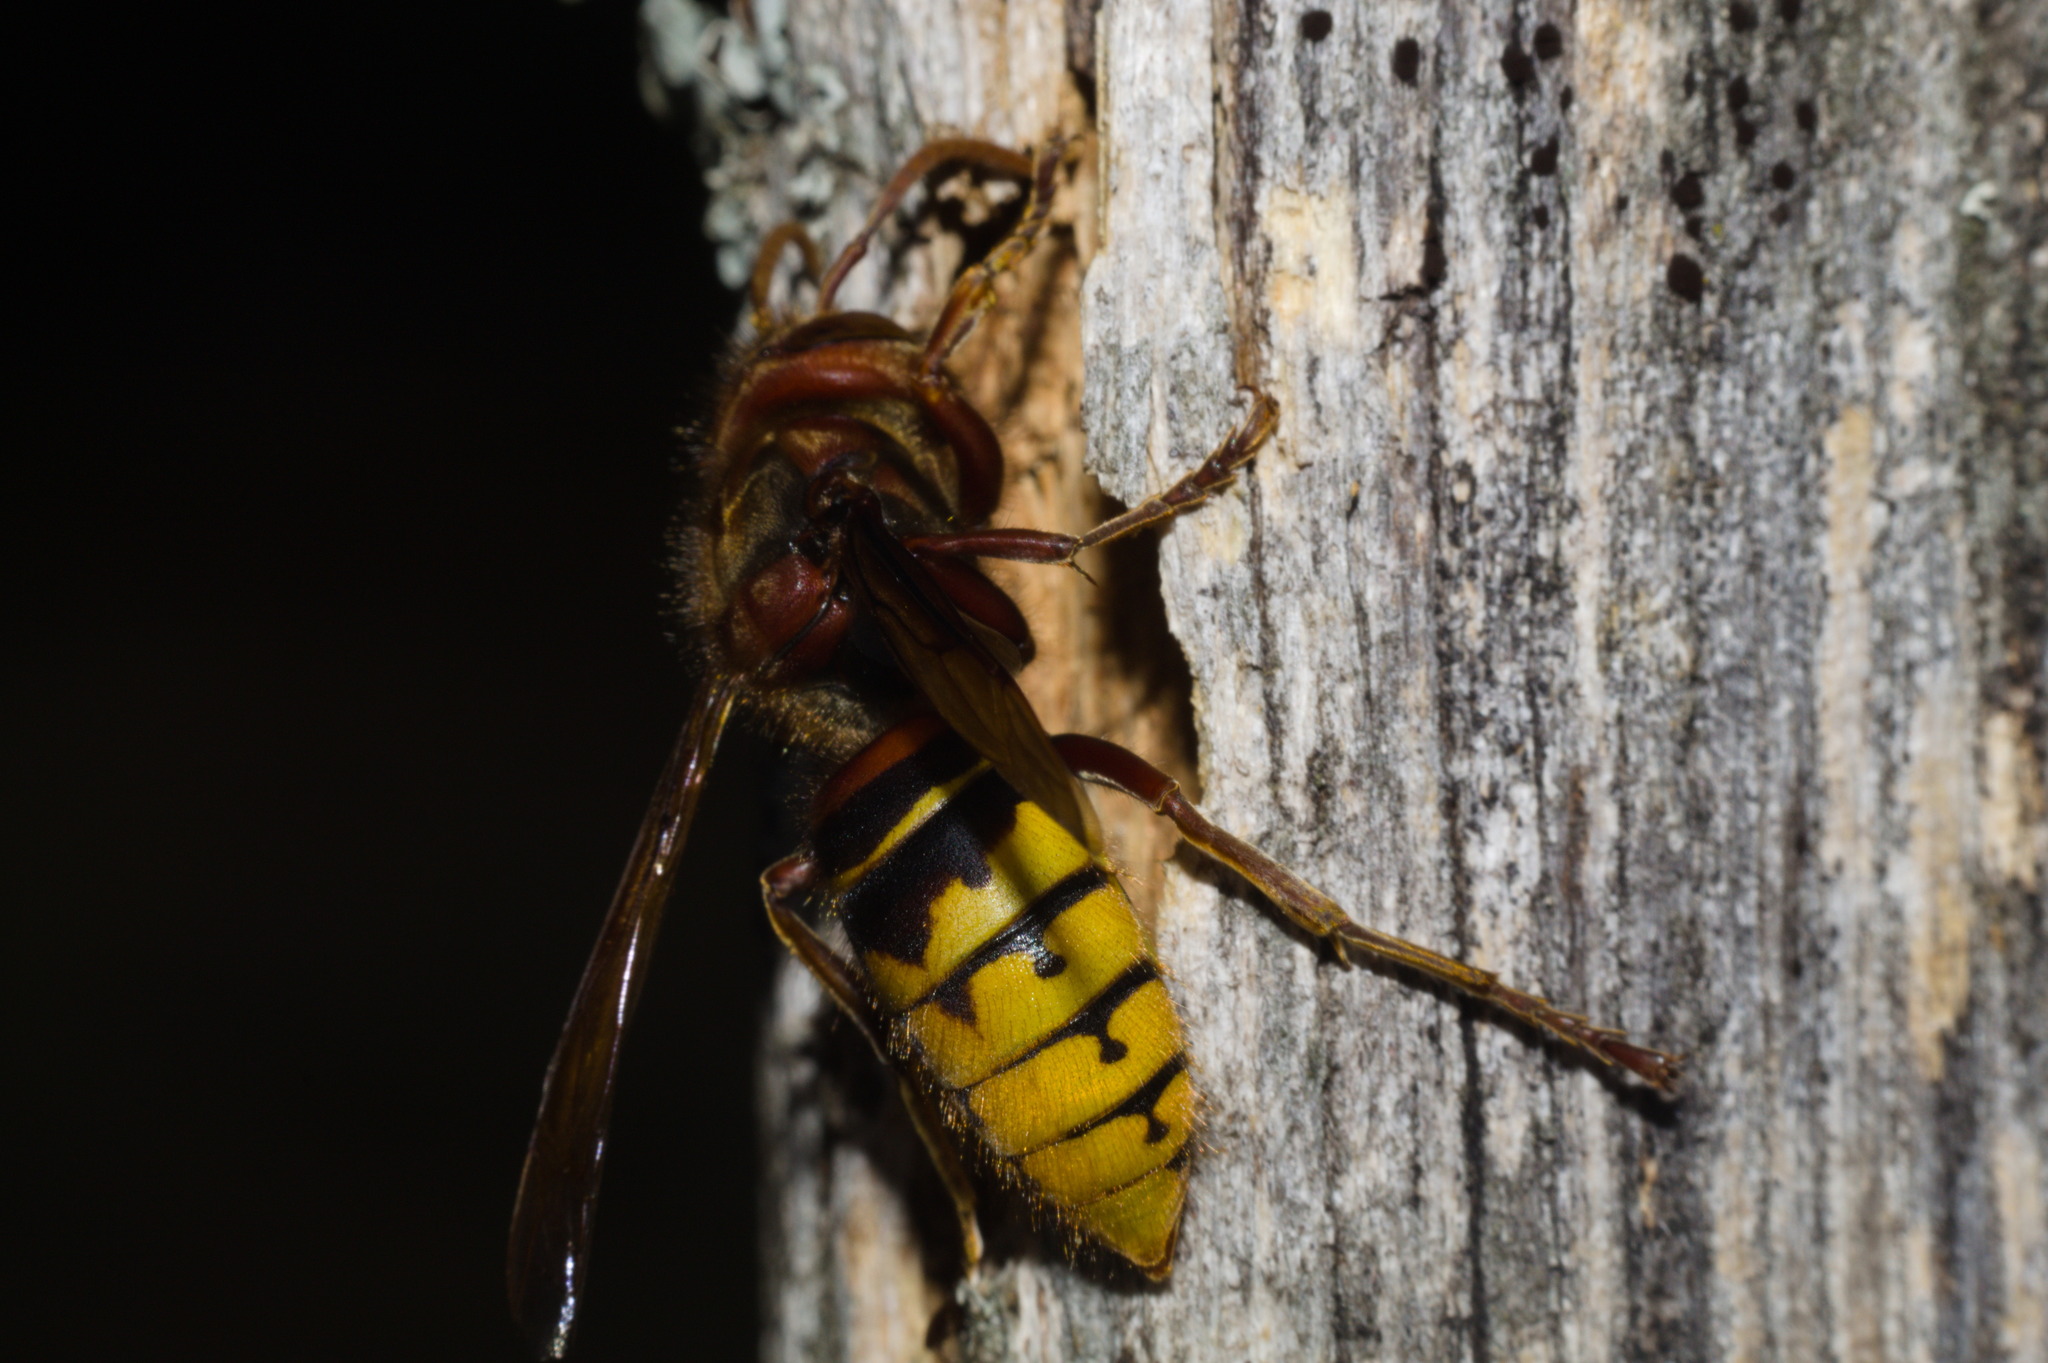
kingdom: Animalia
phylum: Arthropoda
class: Insecta
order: Hymenoptera
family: Vespidae
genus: Vespa
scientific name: Vespa crabro
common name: Hornet
